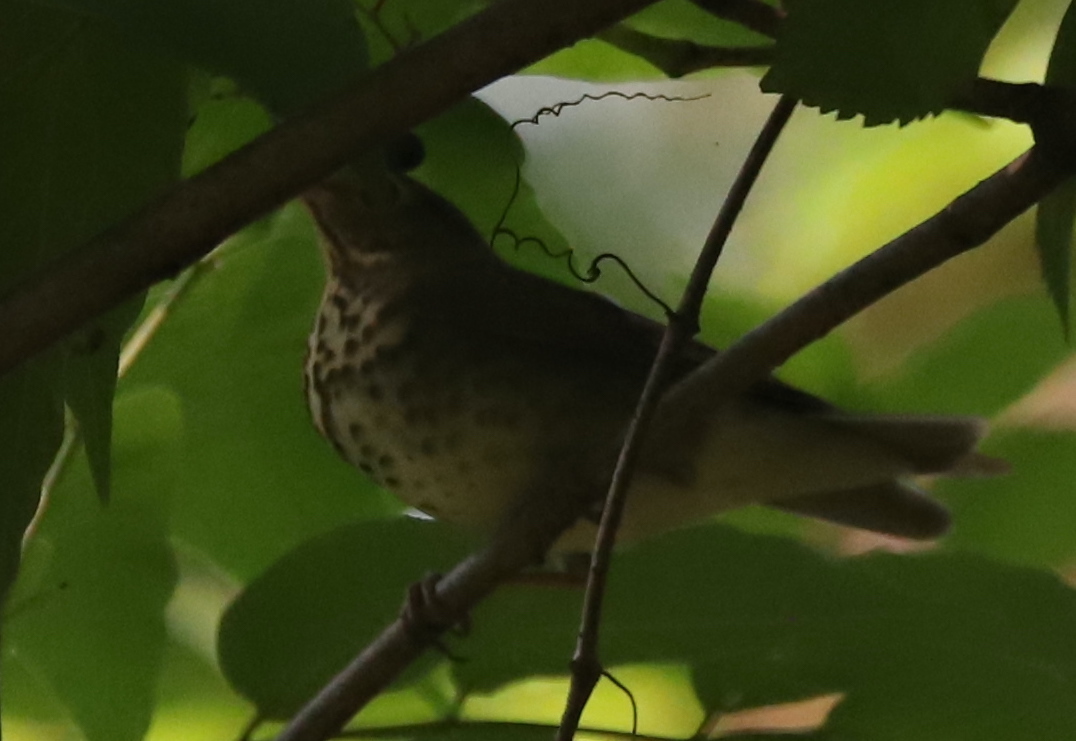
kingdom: Animalia
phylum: Chordata
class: Aves
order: Passeriformes
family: Turdidae
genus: Catharus
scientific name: Catharus ustulatus
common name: Swainson's thrush
